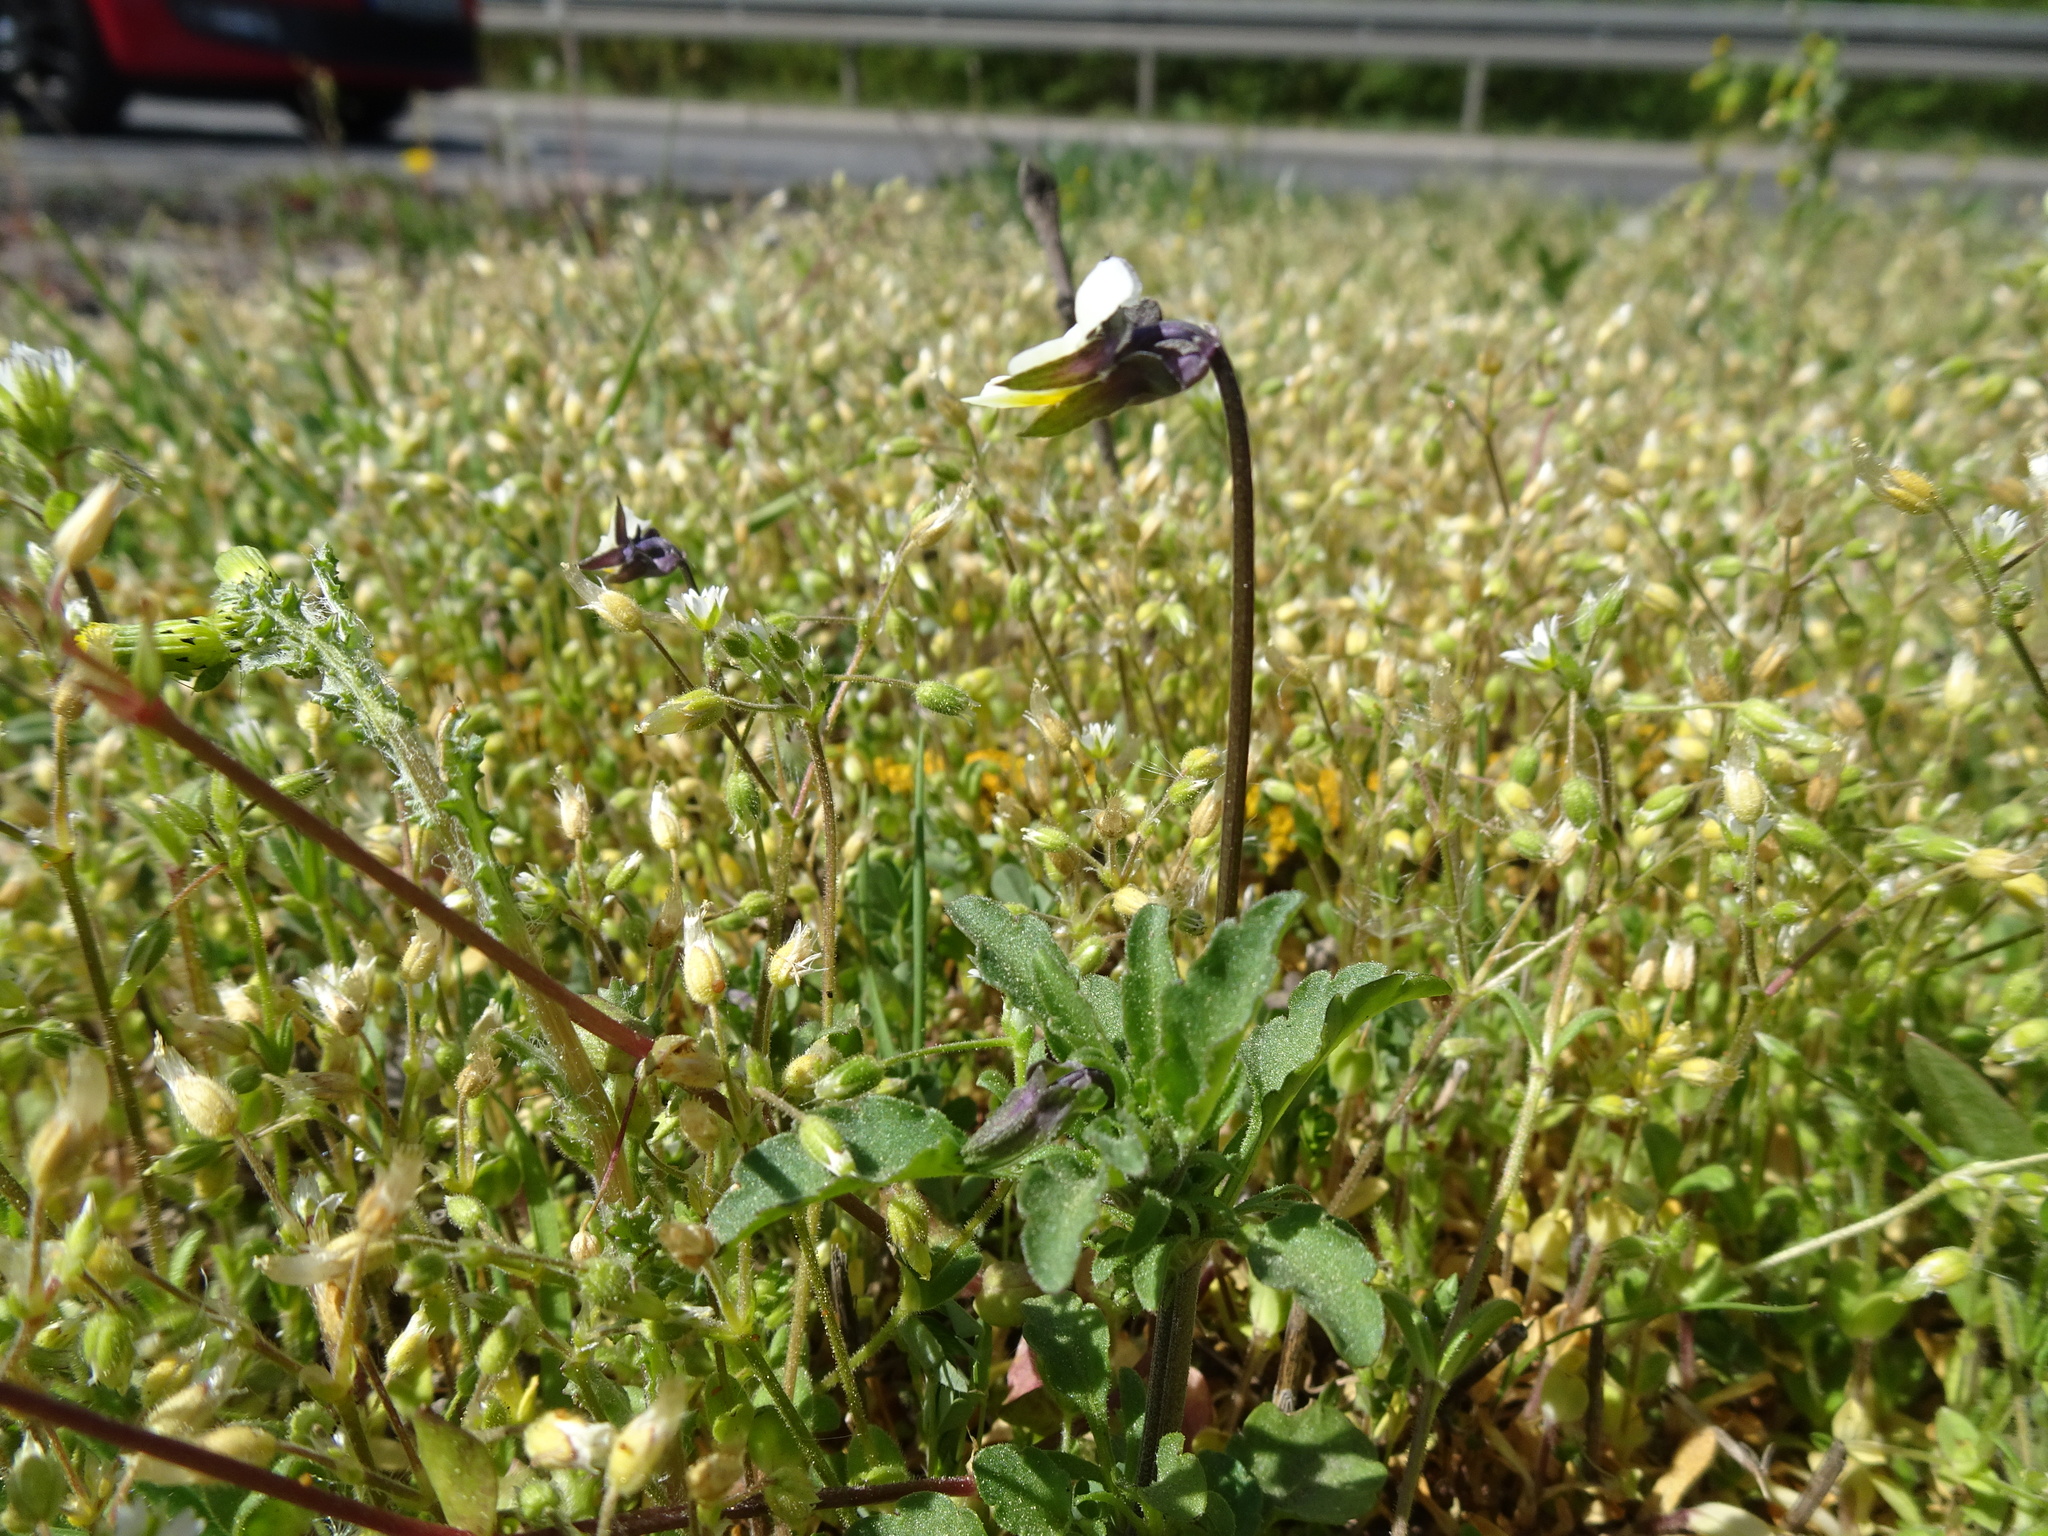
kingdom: Plantae
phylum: Tracheophyta
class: Magnoliopsida
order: Malpighiales
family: Violaceae
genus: Viola
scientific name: Viola arvensis
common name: Field pansy
